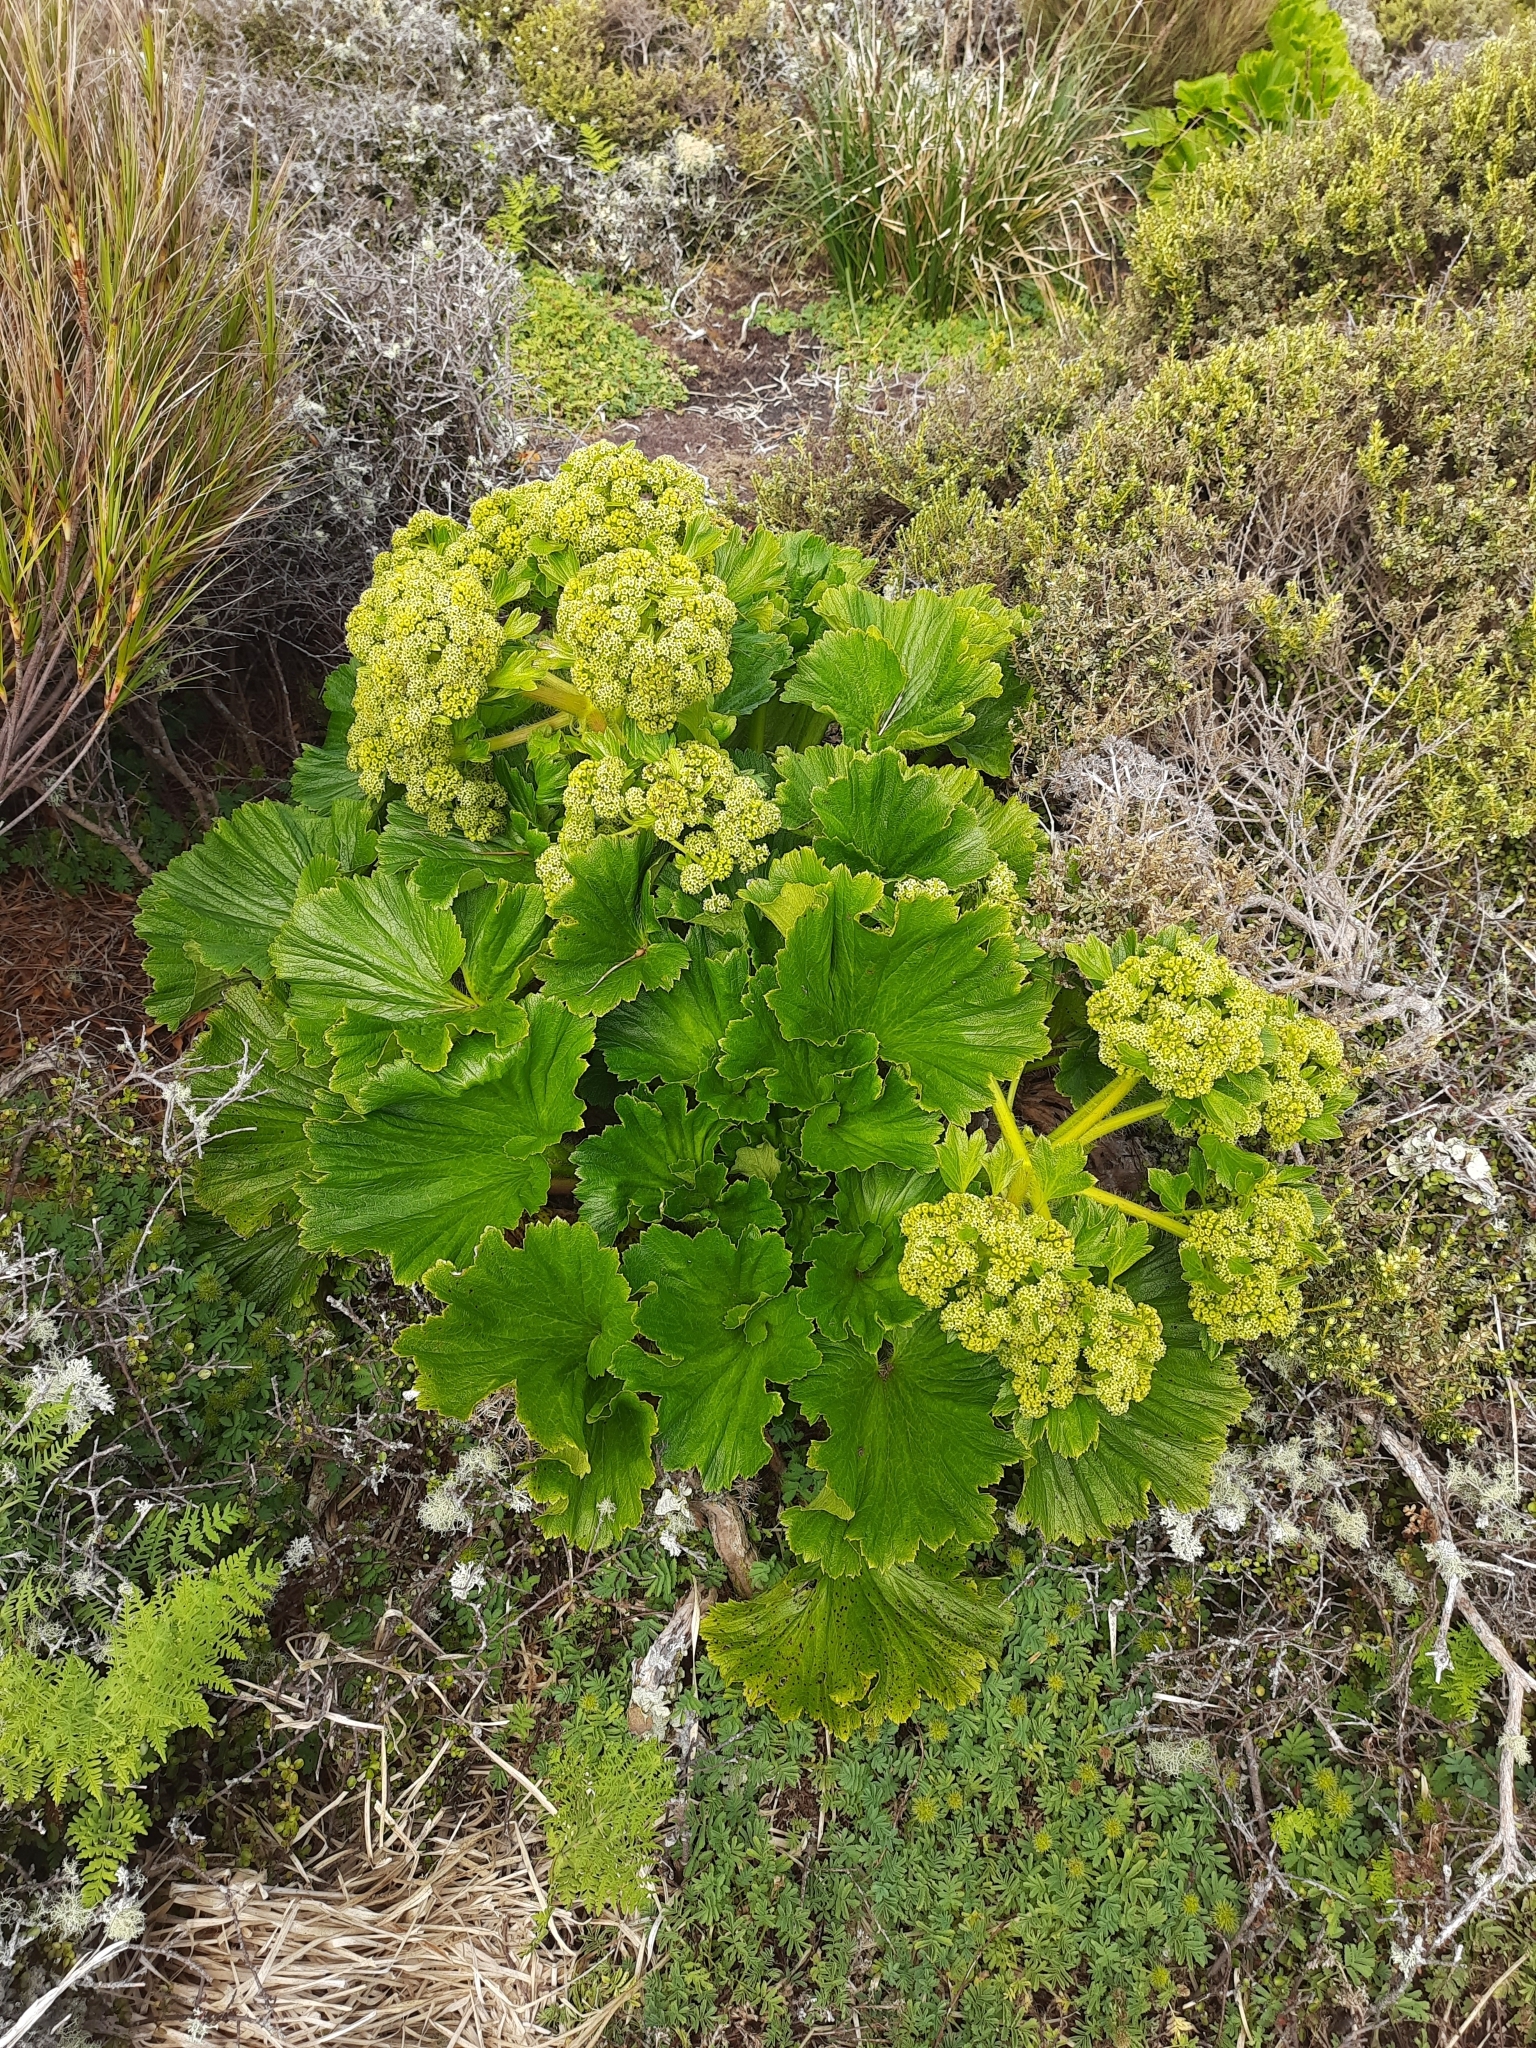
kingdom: Plantae
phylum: Tracheophyta
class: Magnoliopsida
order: Apiales
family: Apiaceae
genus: Azorella
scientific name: Azorella polaris
